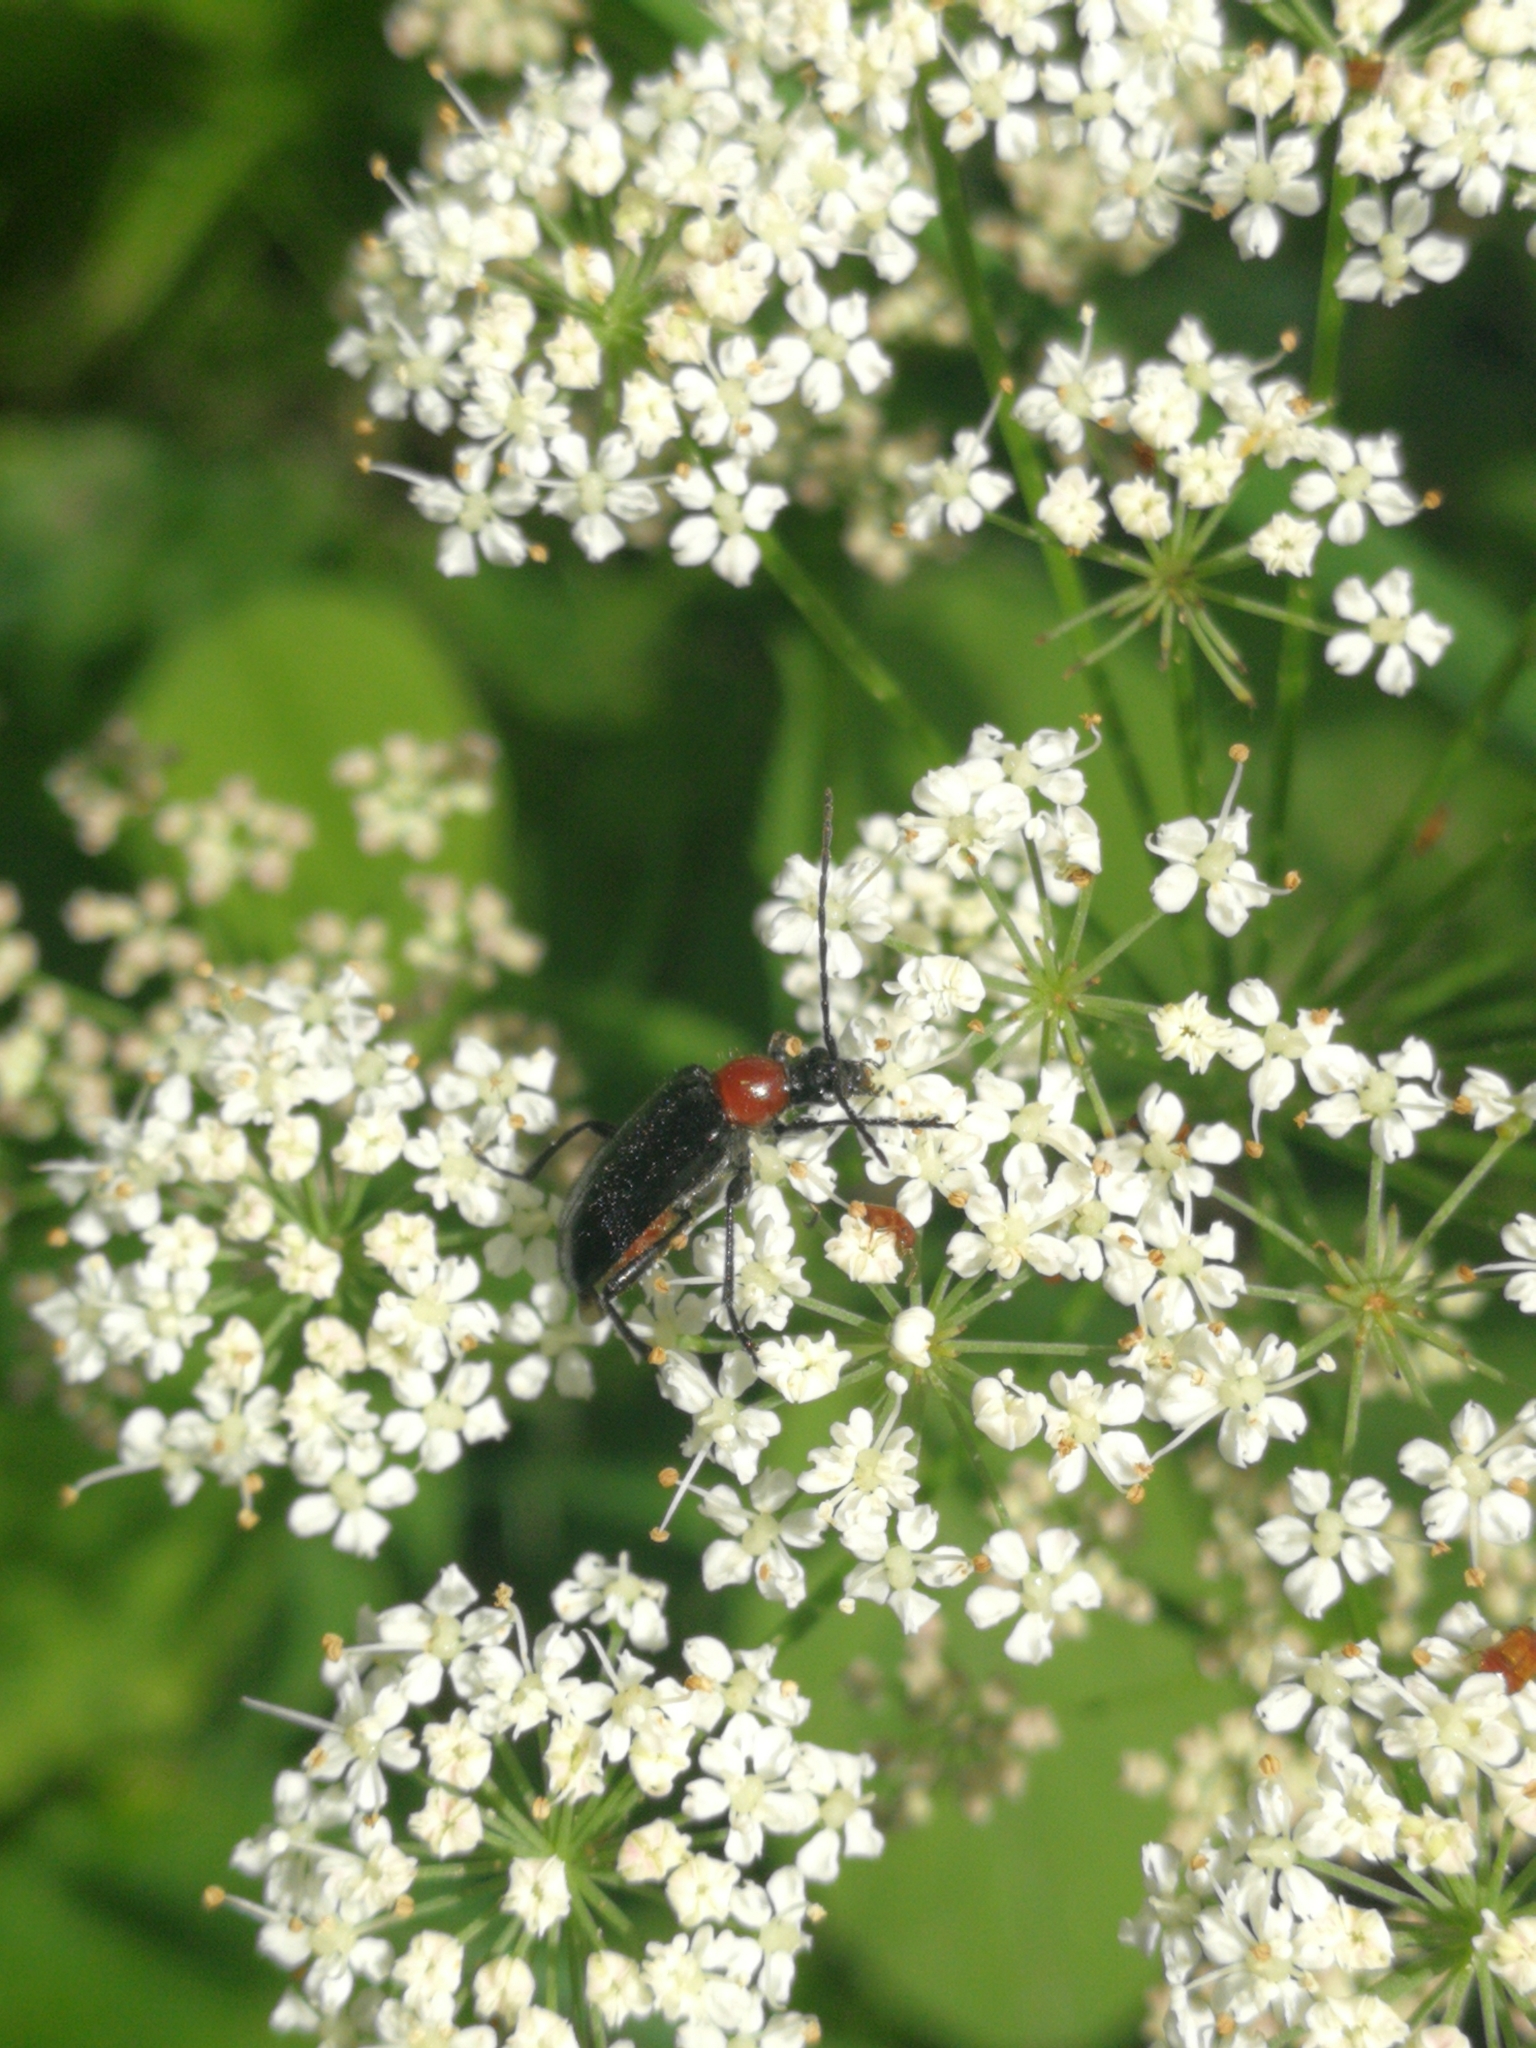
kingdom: Animalia
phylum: Arthropoda
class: Insecta
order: Coleoptera
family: Cerambycidae
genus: Dinoptera
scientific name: Dinoptera collaris
